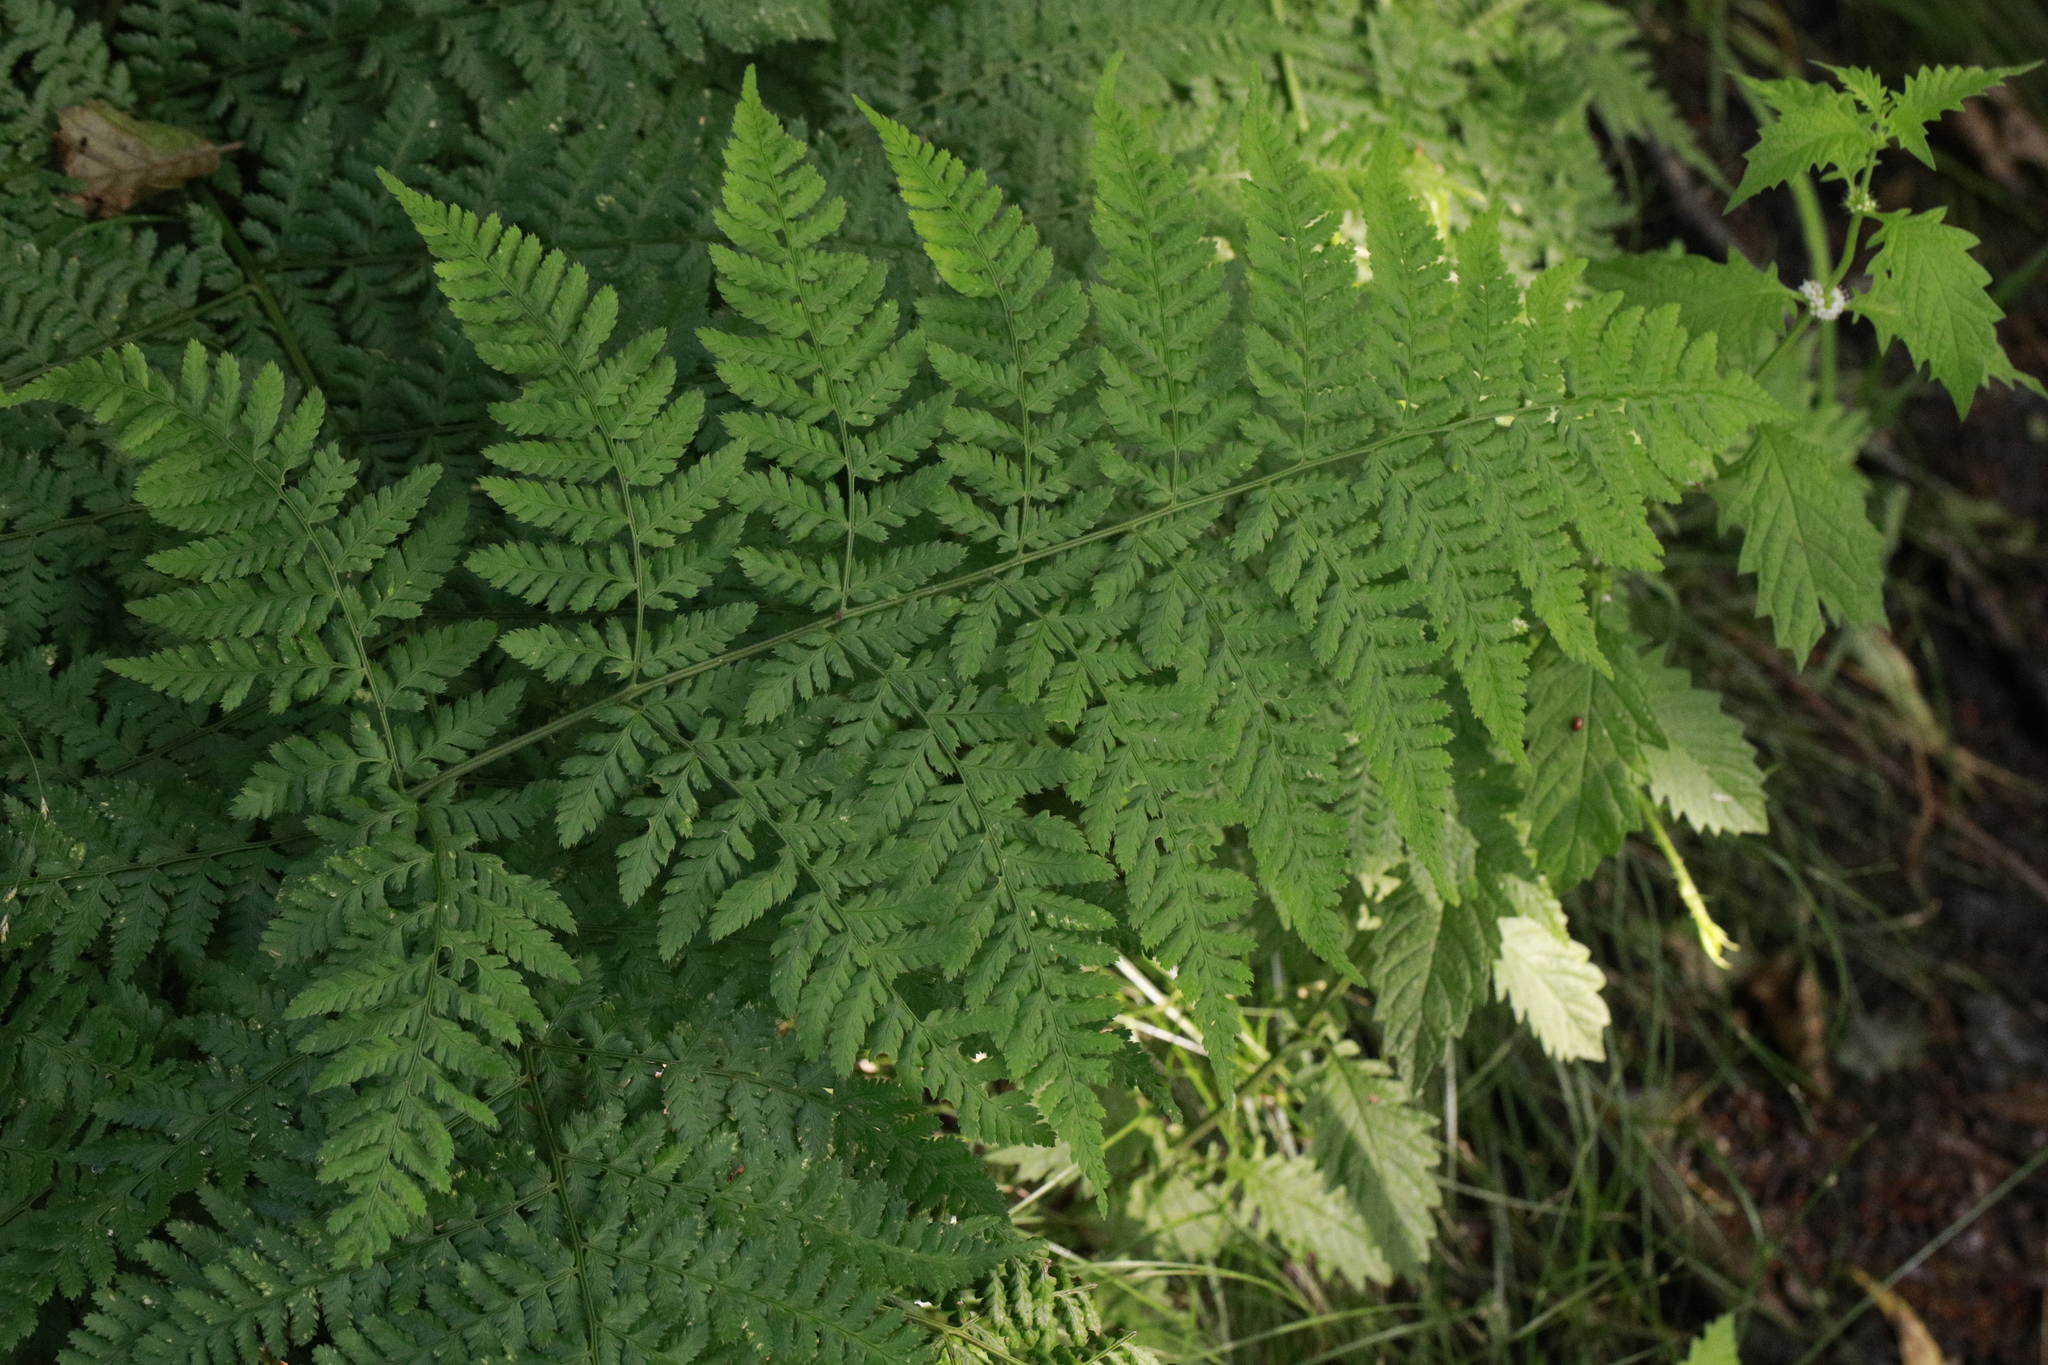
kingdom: Plantae
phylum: Tracheophyta
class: Polypodiopsida
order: Polypodiales
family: Dryopteridaceae
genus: Dryopteris
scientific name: Dryopteris dilatata
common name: Broad buckler-fern
